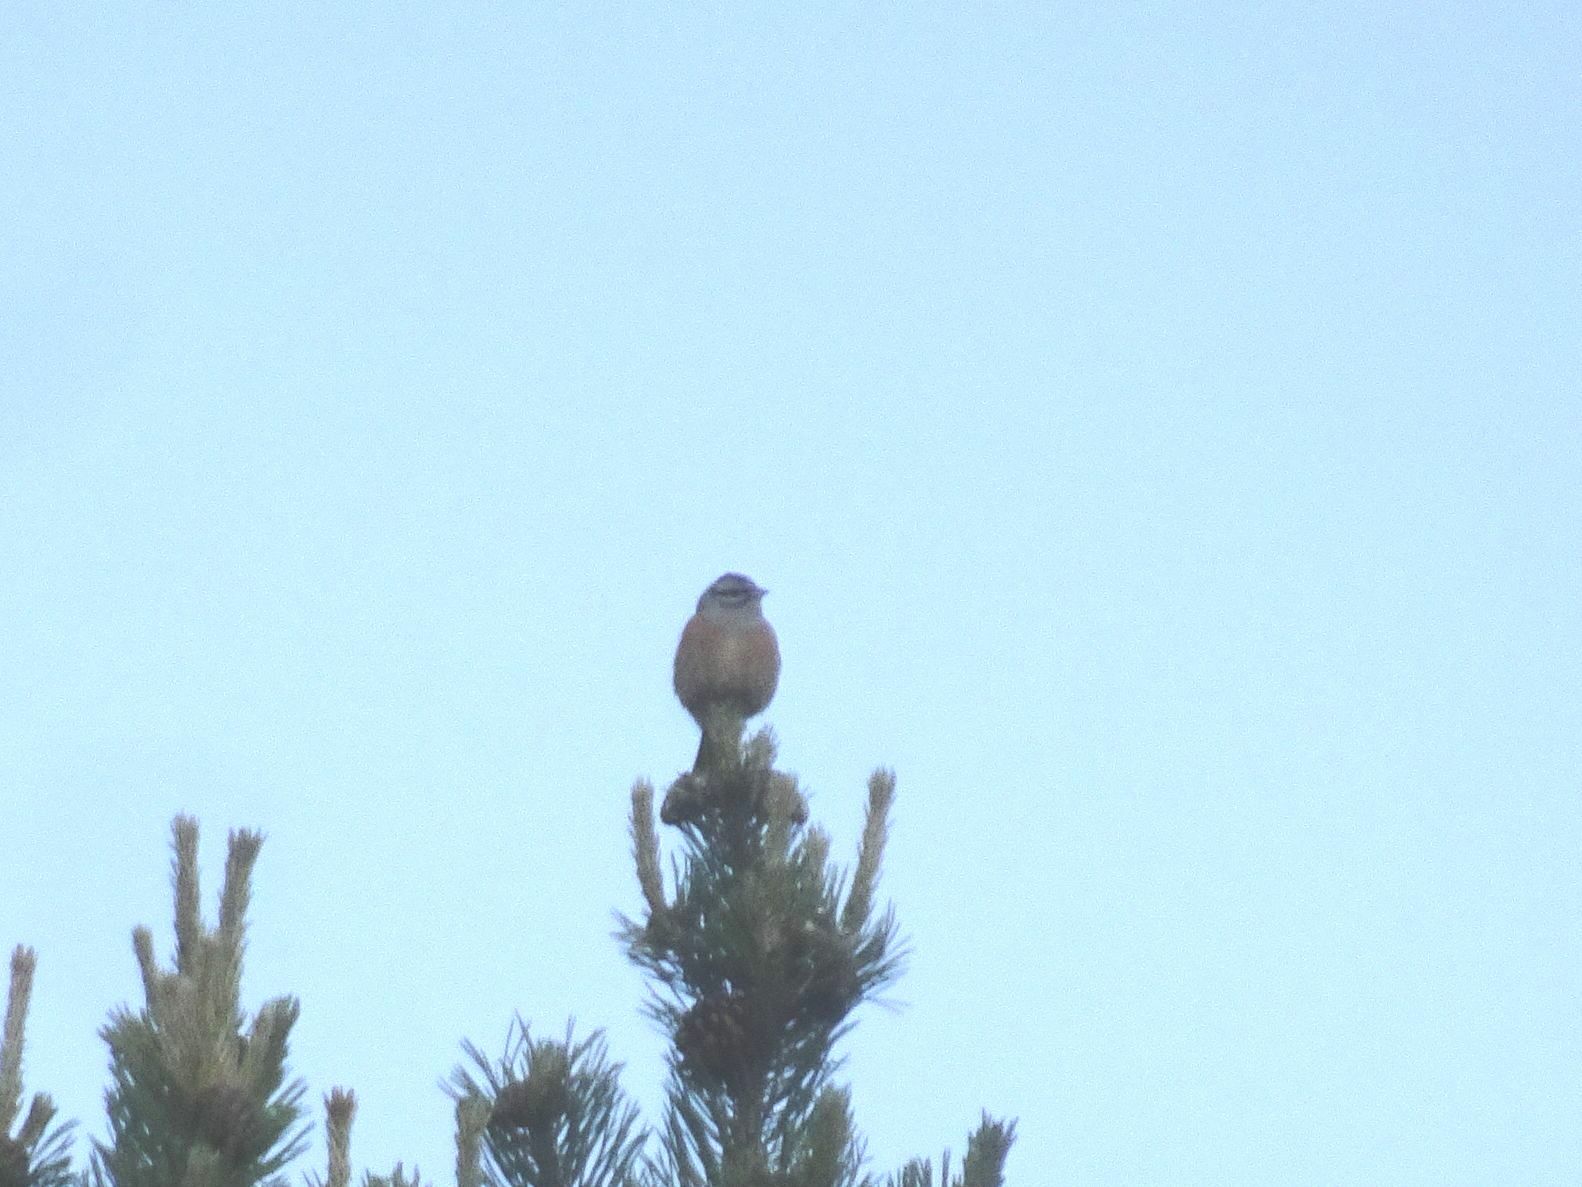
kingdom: Animalia
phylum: Chordata
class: Aves
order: Passeriformes
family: Emberizidae
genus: Emberiza
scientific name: Emberiza cia
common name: Rock bunting
